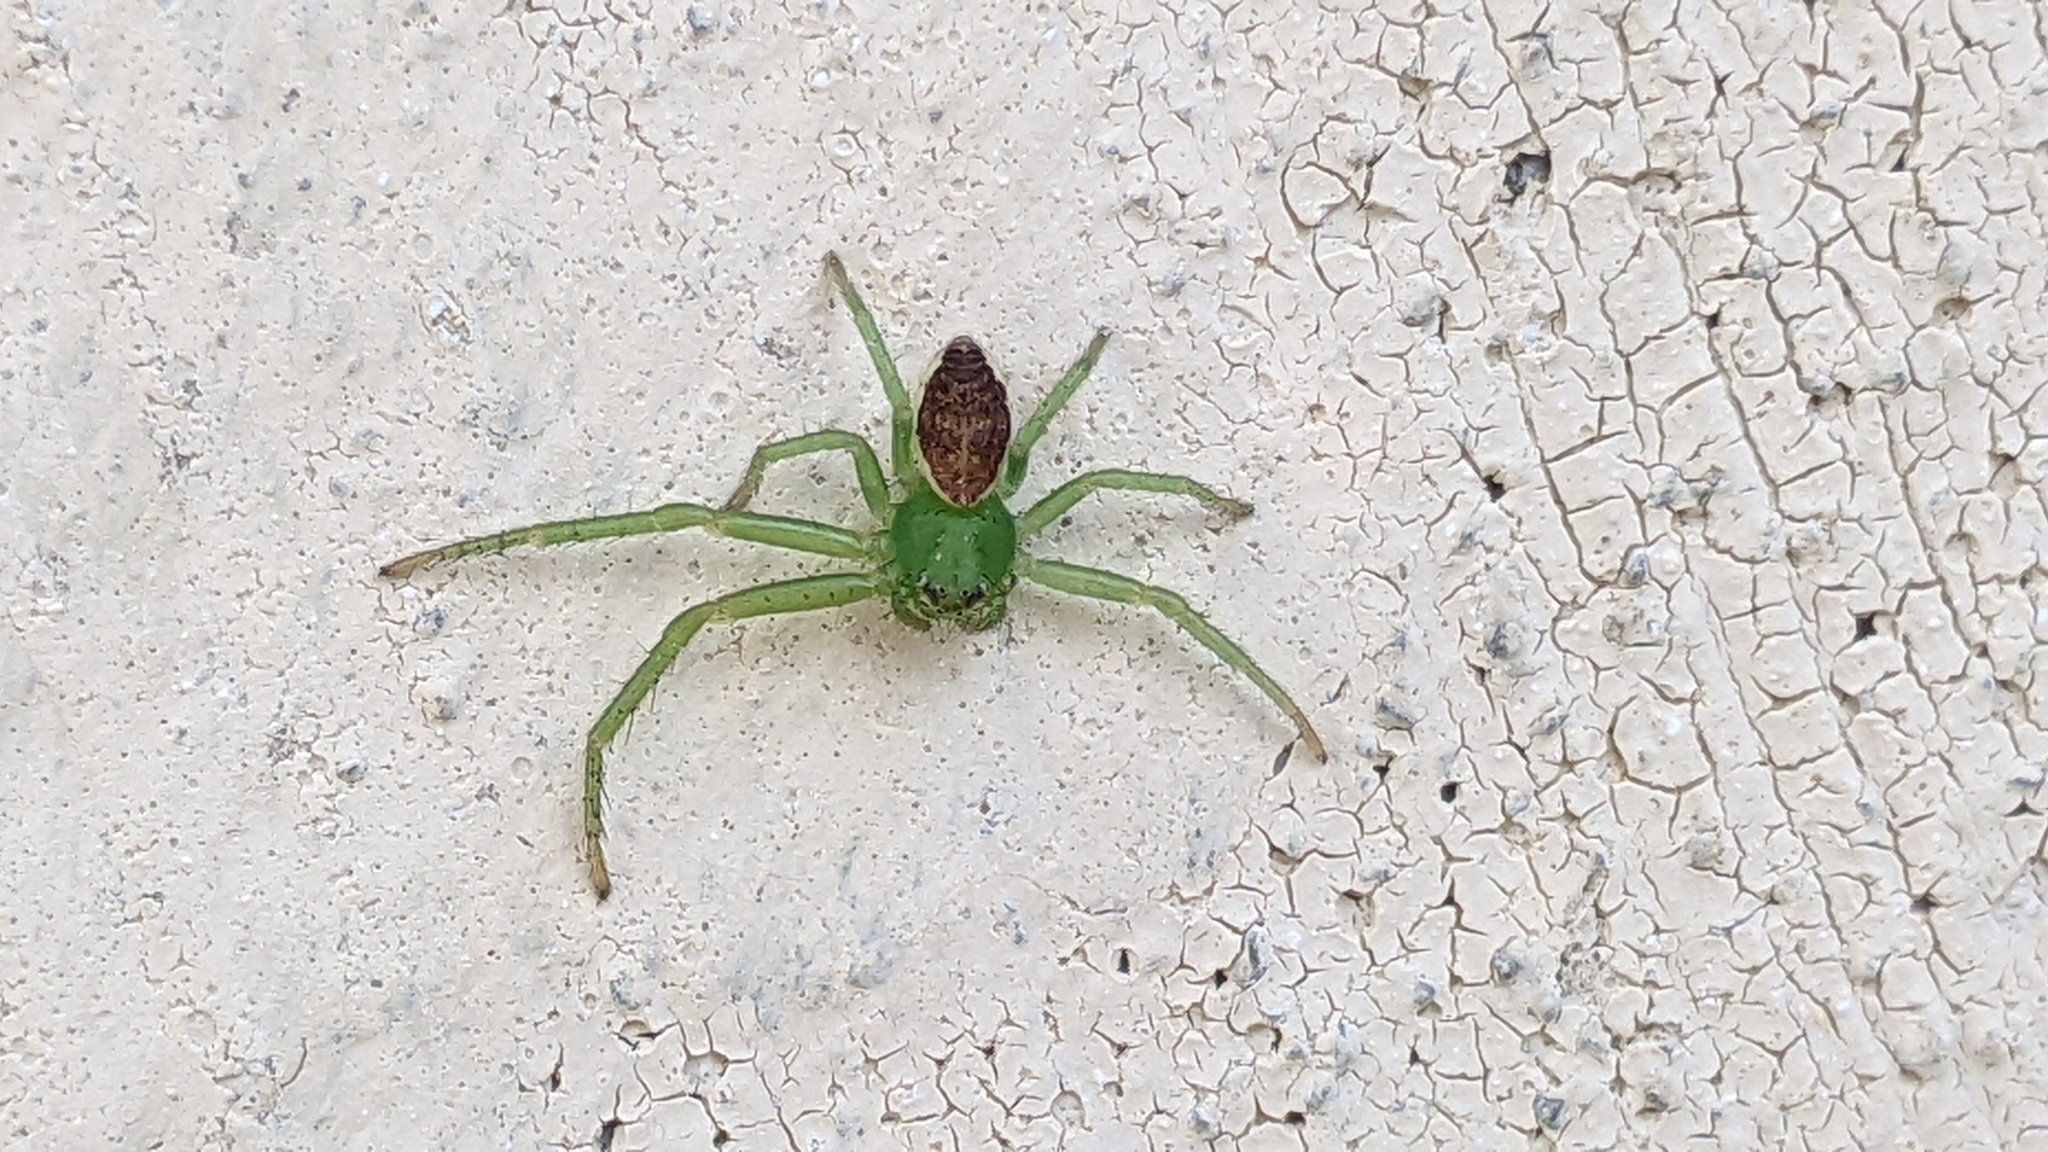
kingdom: Animalia
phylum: Arthropoda
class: Arachnida
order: Araneae
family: Thomisidae
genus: Diaea
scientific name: Diaea dorsata
